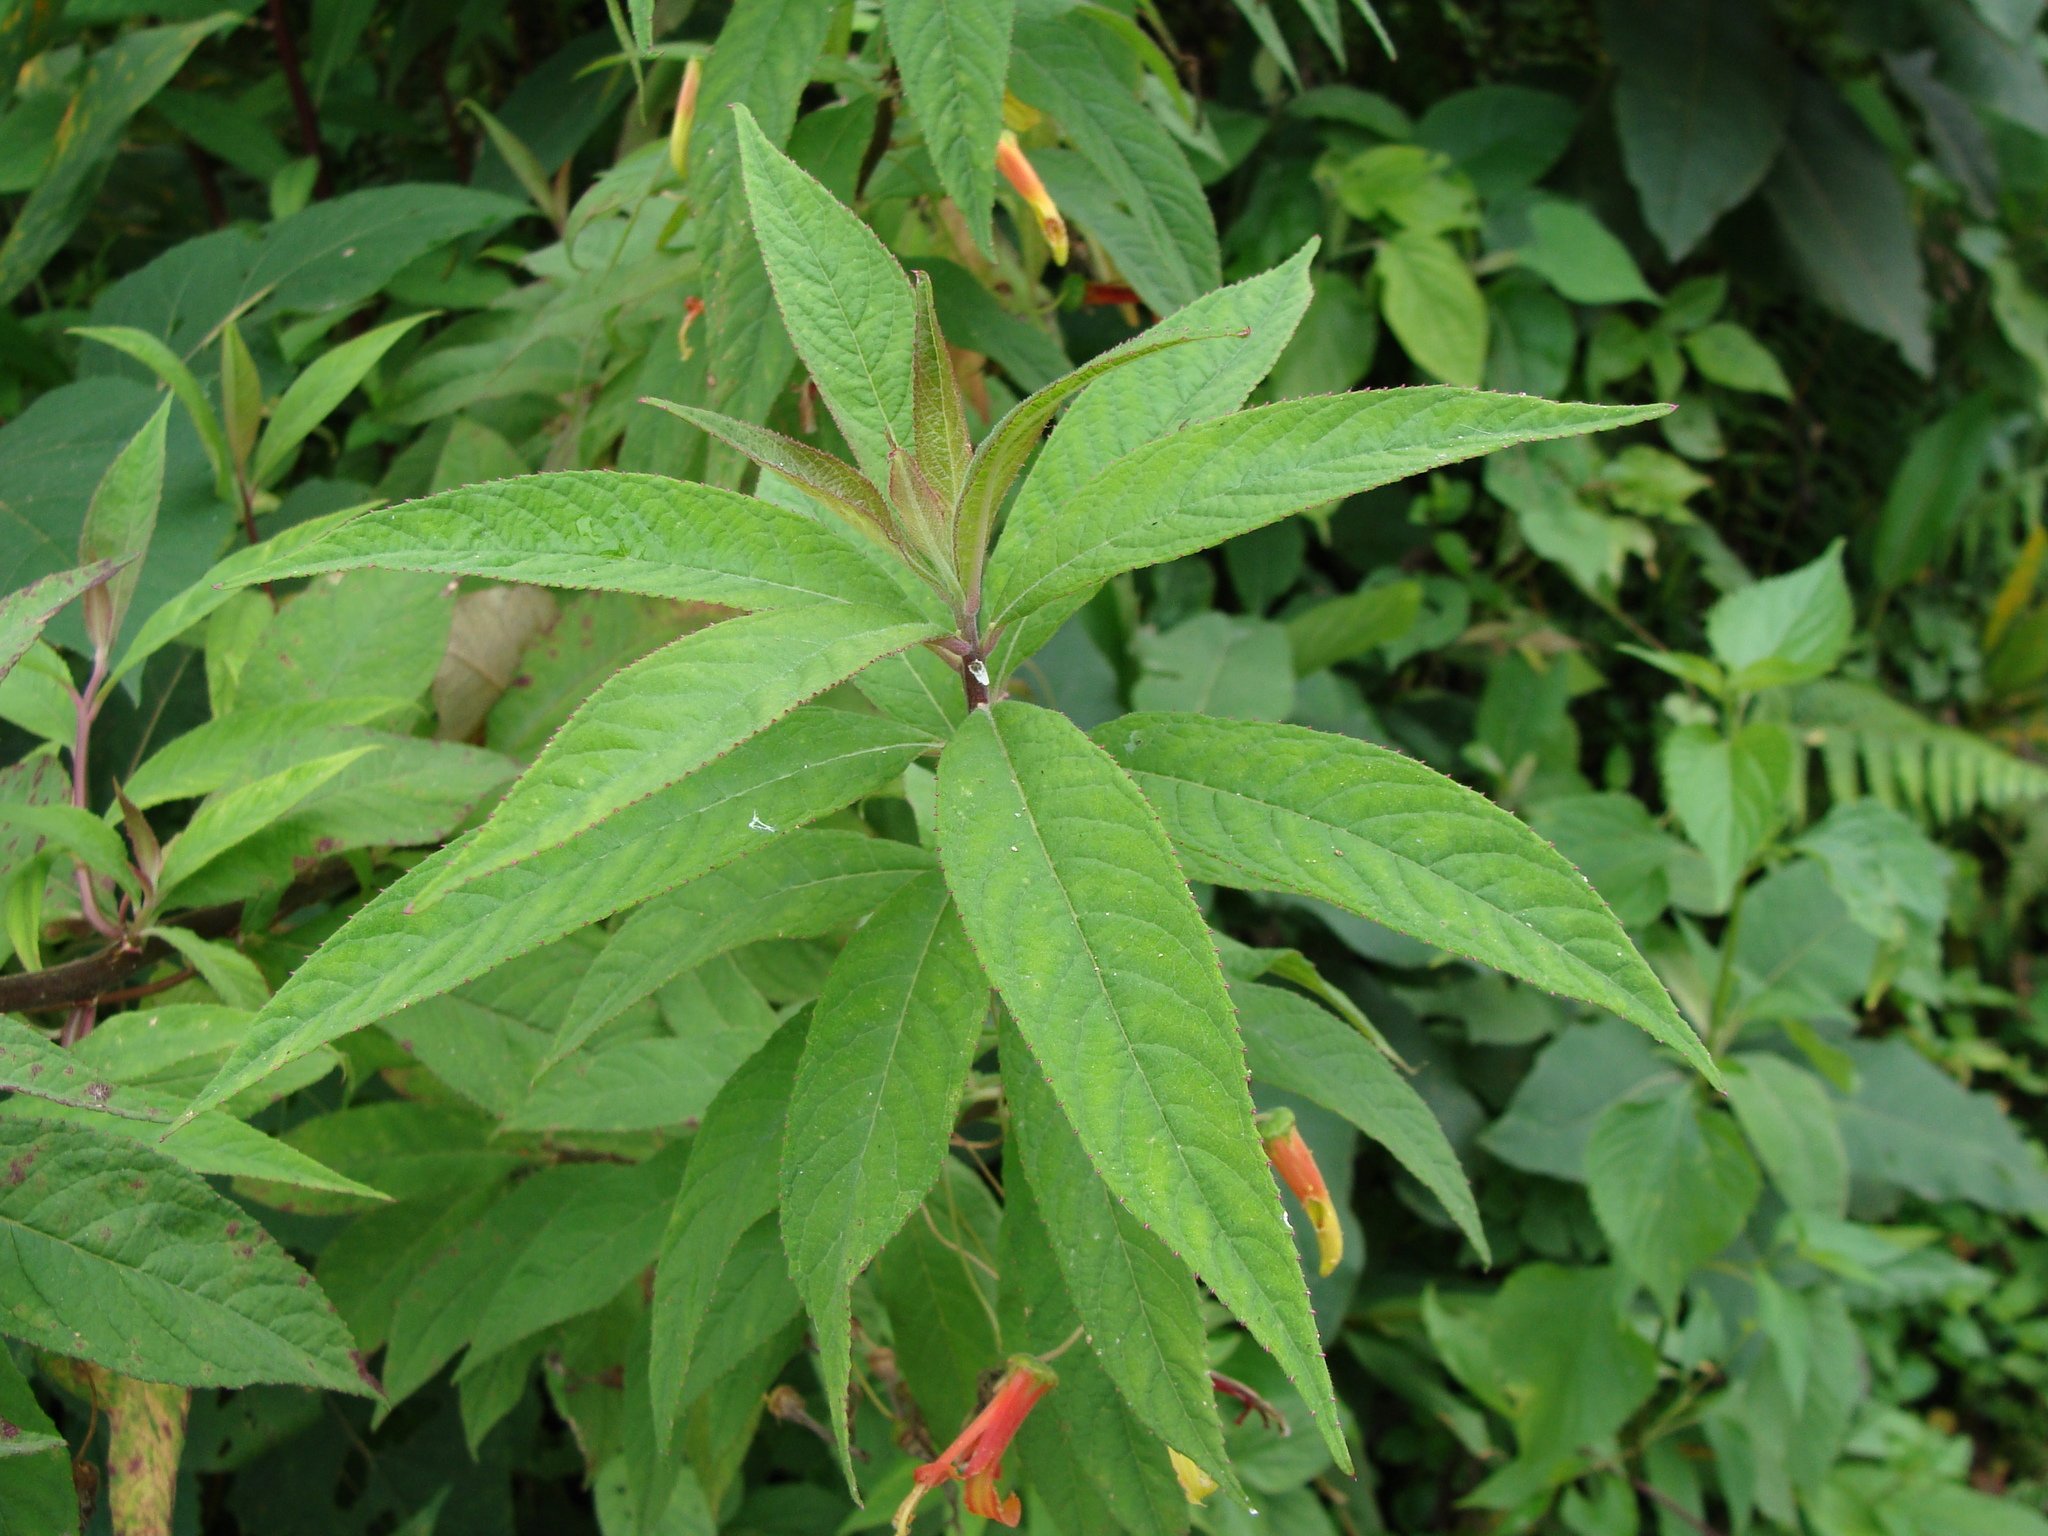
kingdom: Plantae
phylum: Tracheophyta
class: Magnoliopsida
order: Asterales
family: Campanulaceae
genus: Lobelia
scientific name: Lobelia laxiflora
